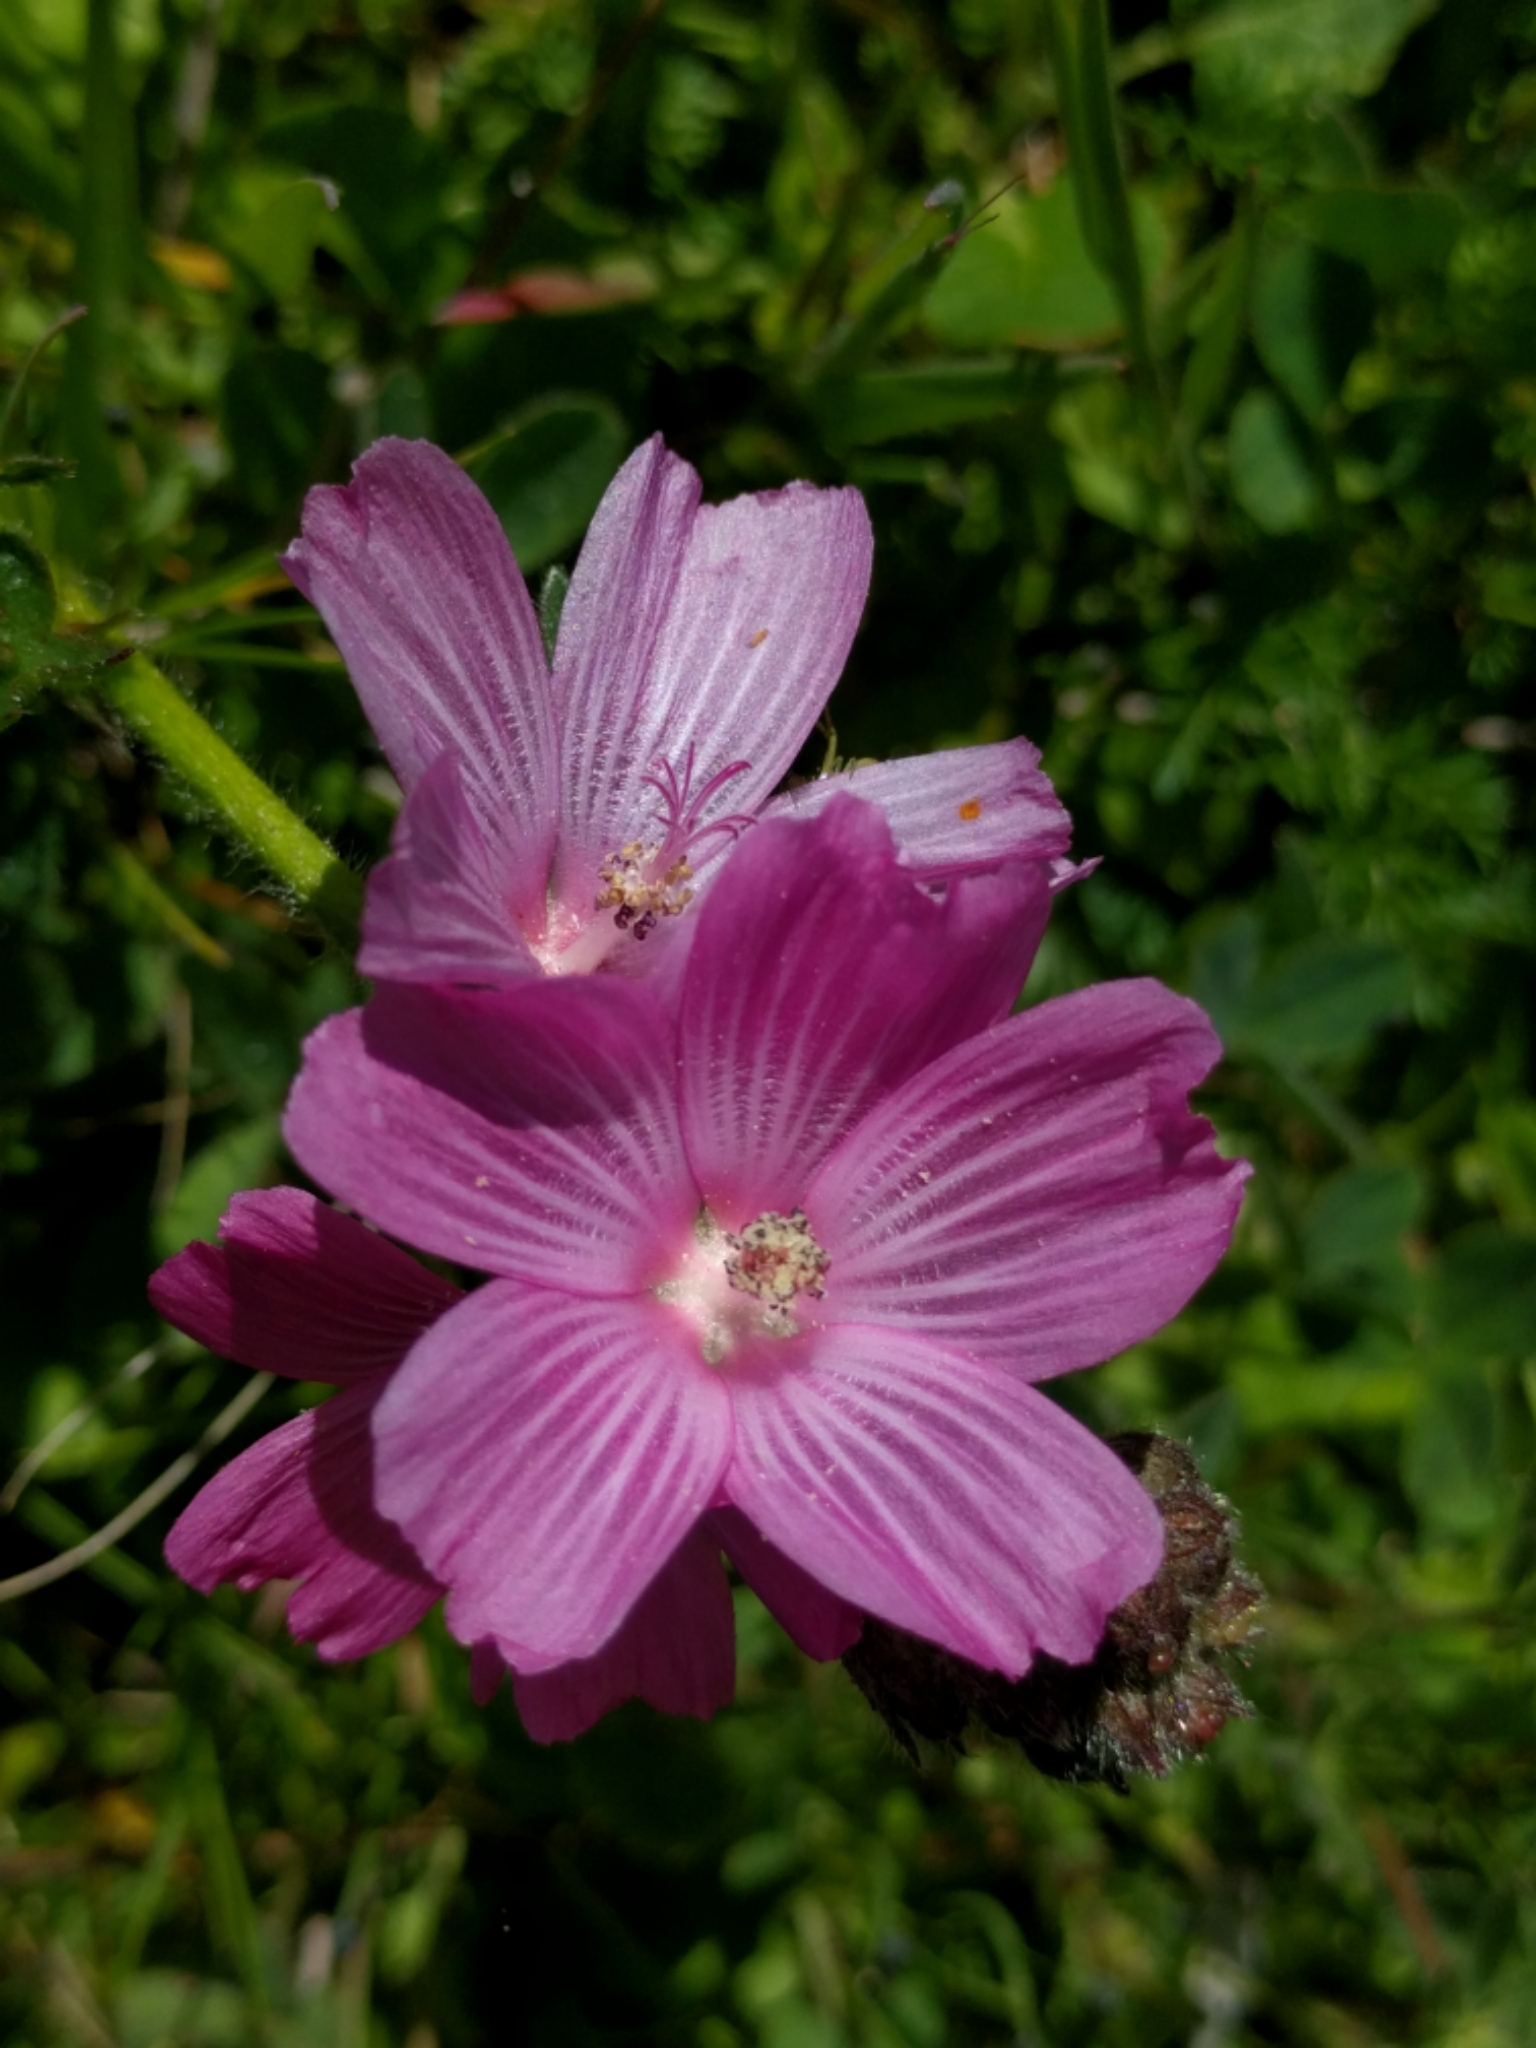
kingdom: Plantae
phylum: Tracheophyta
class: Magnoliopsida
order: Malvales
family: Malvaceae
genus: Sidalcea
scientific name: Sidalcea malviflora
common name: Greek mallow
